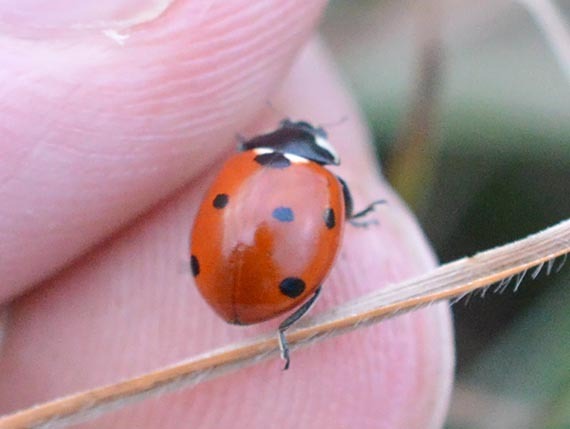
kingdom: Animalia
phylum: Arthropoda
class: Insecta
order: Coleoptera
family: Coccinellidae
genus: Coccinella
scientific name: Coccinella septempunctata
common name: Sevenspotted lady beetle
